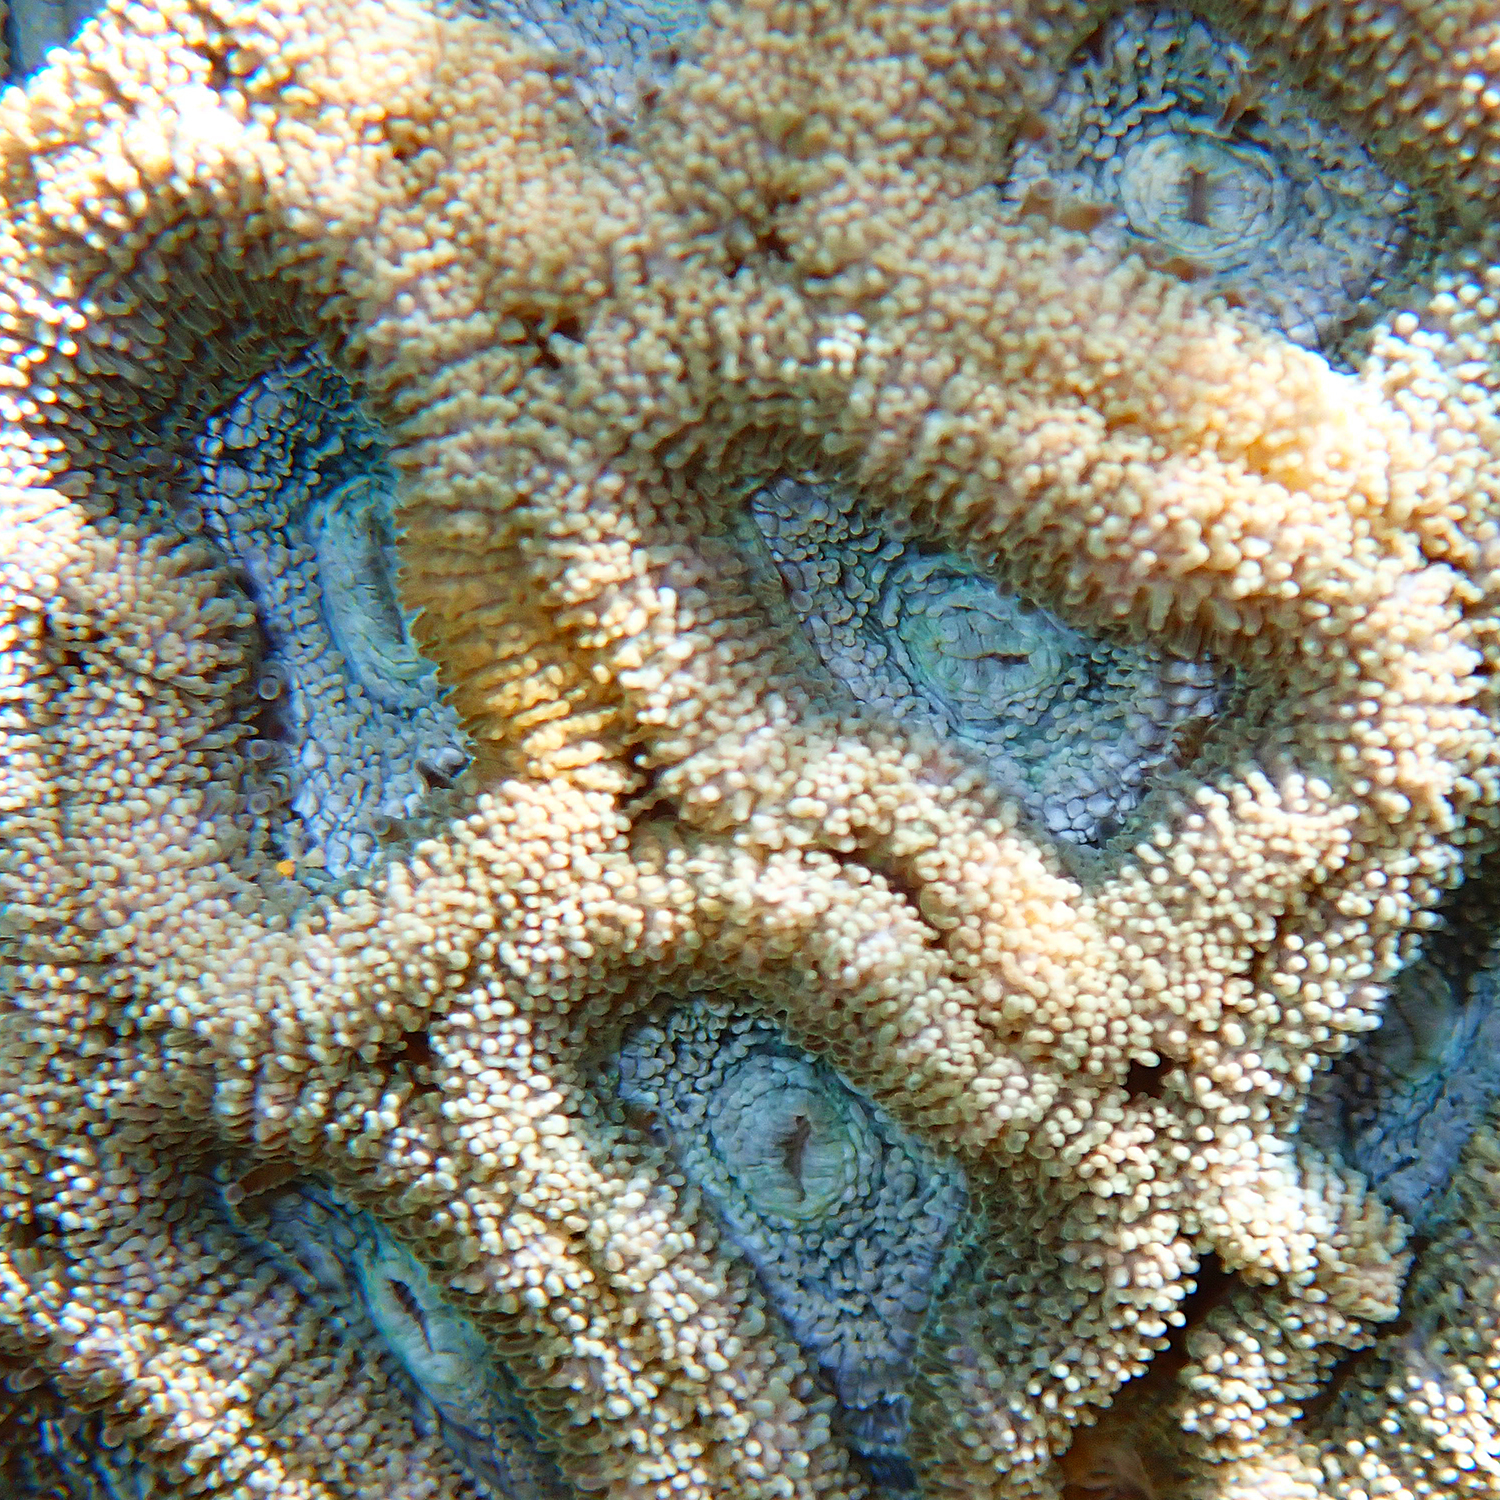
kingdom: Animalia
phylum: Cnidaria
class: Anthozoa
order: Scleractinia
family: Lobophylliidae
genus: Micromussa
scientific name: Micromussa lordhowensis
